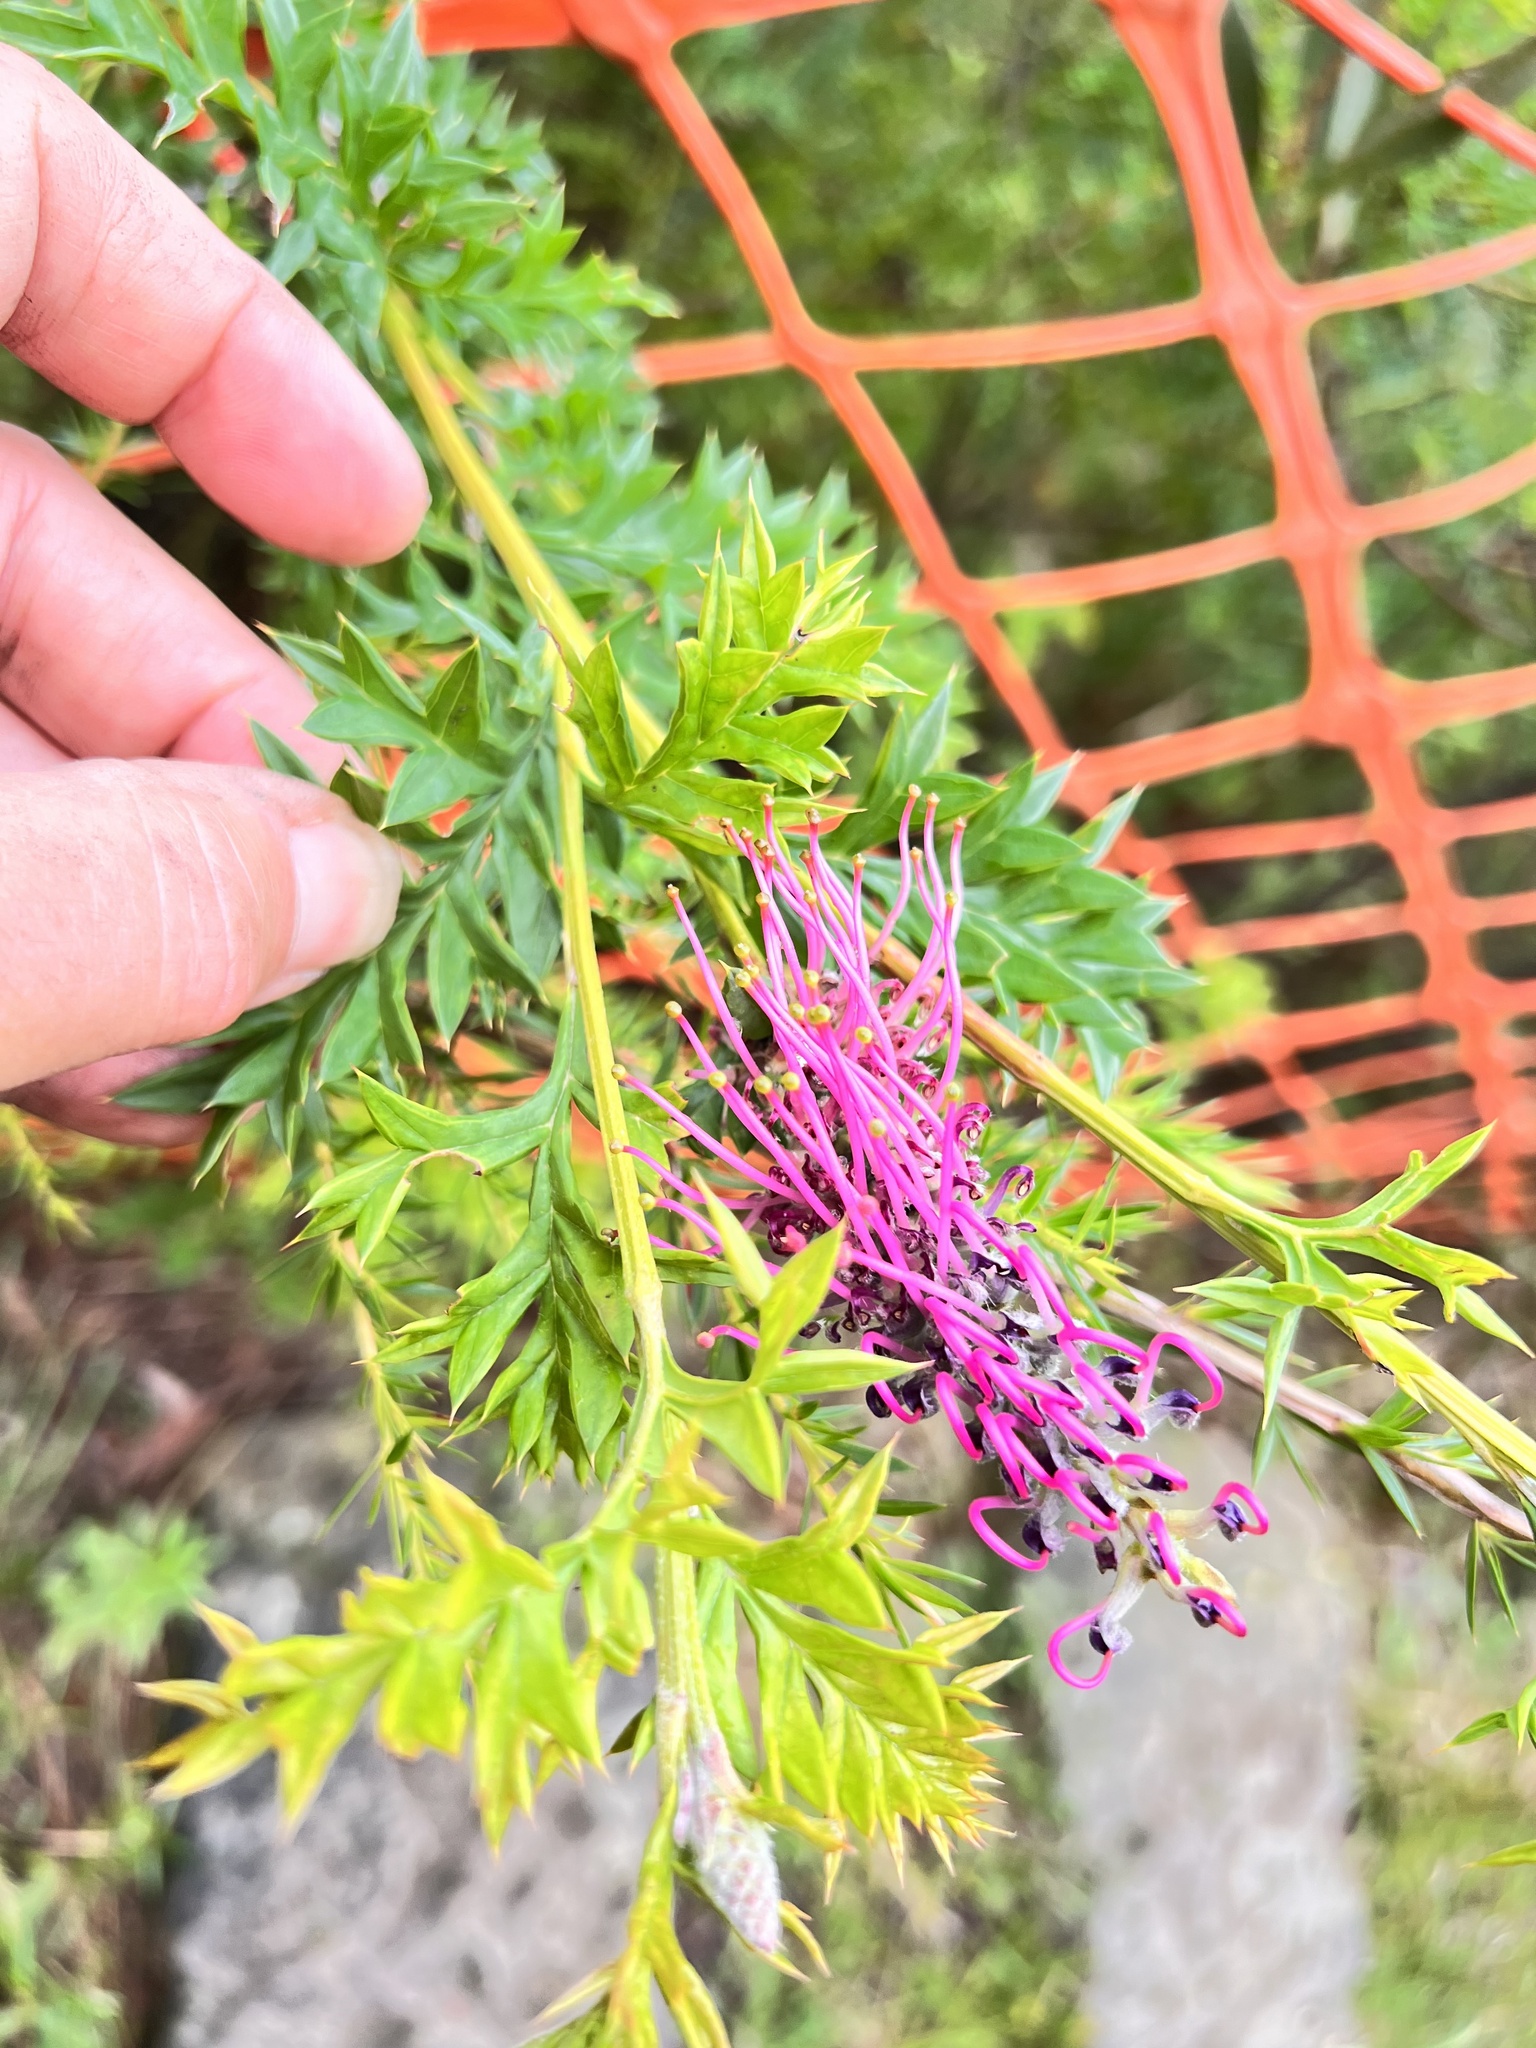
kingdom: Plantae
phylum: Tracheophyta
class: Magnoliopsida
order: Proteales
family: Proteaceae
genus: Grevillea
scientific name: Grevillea acanthifolia
